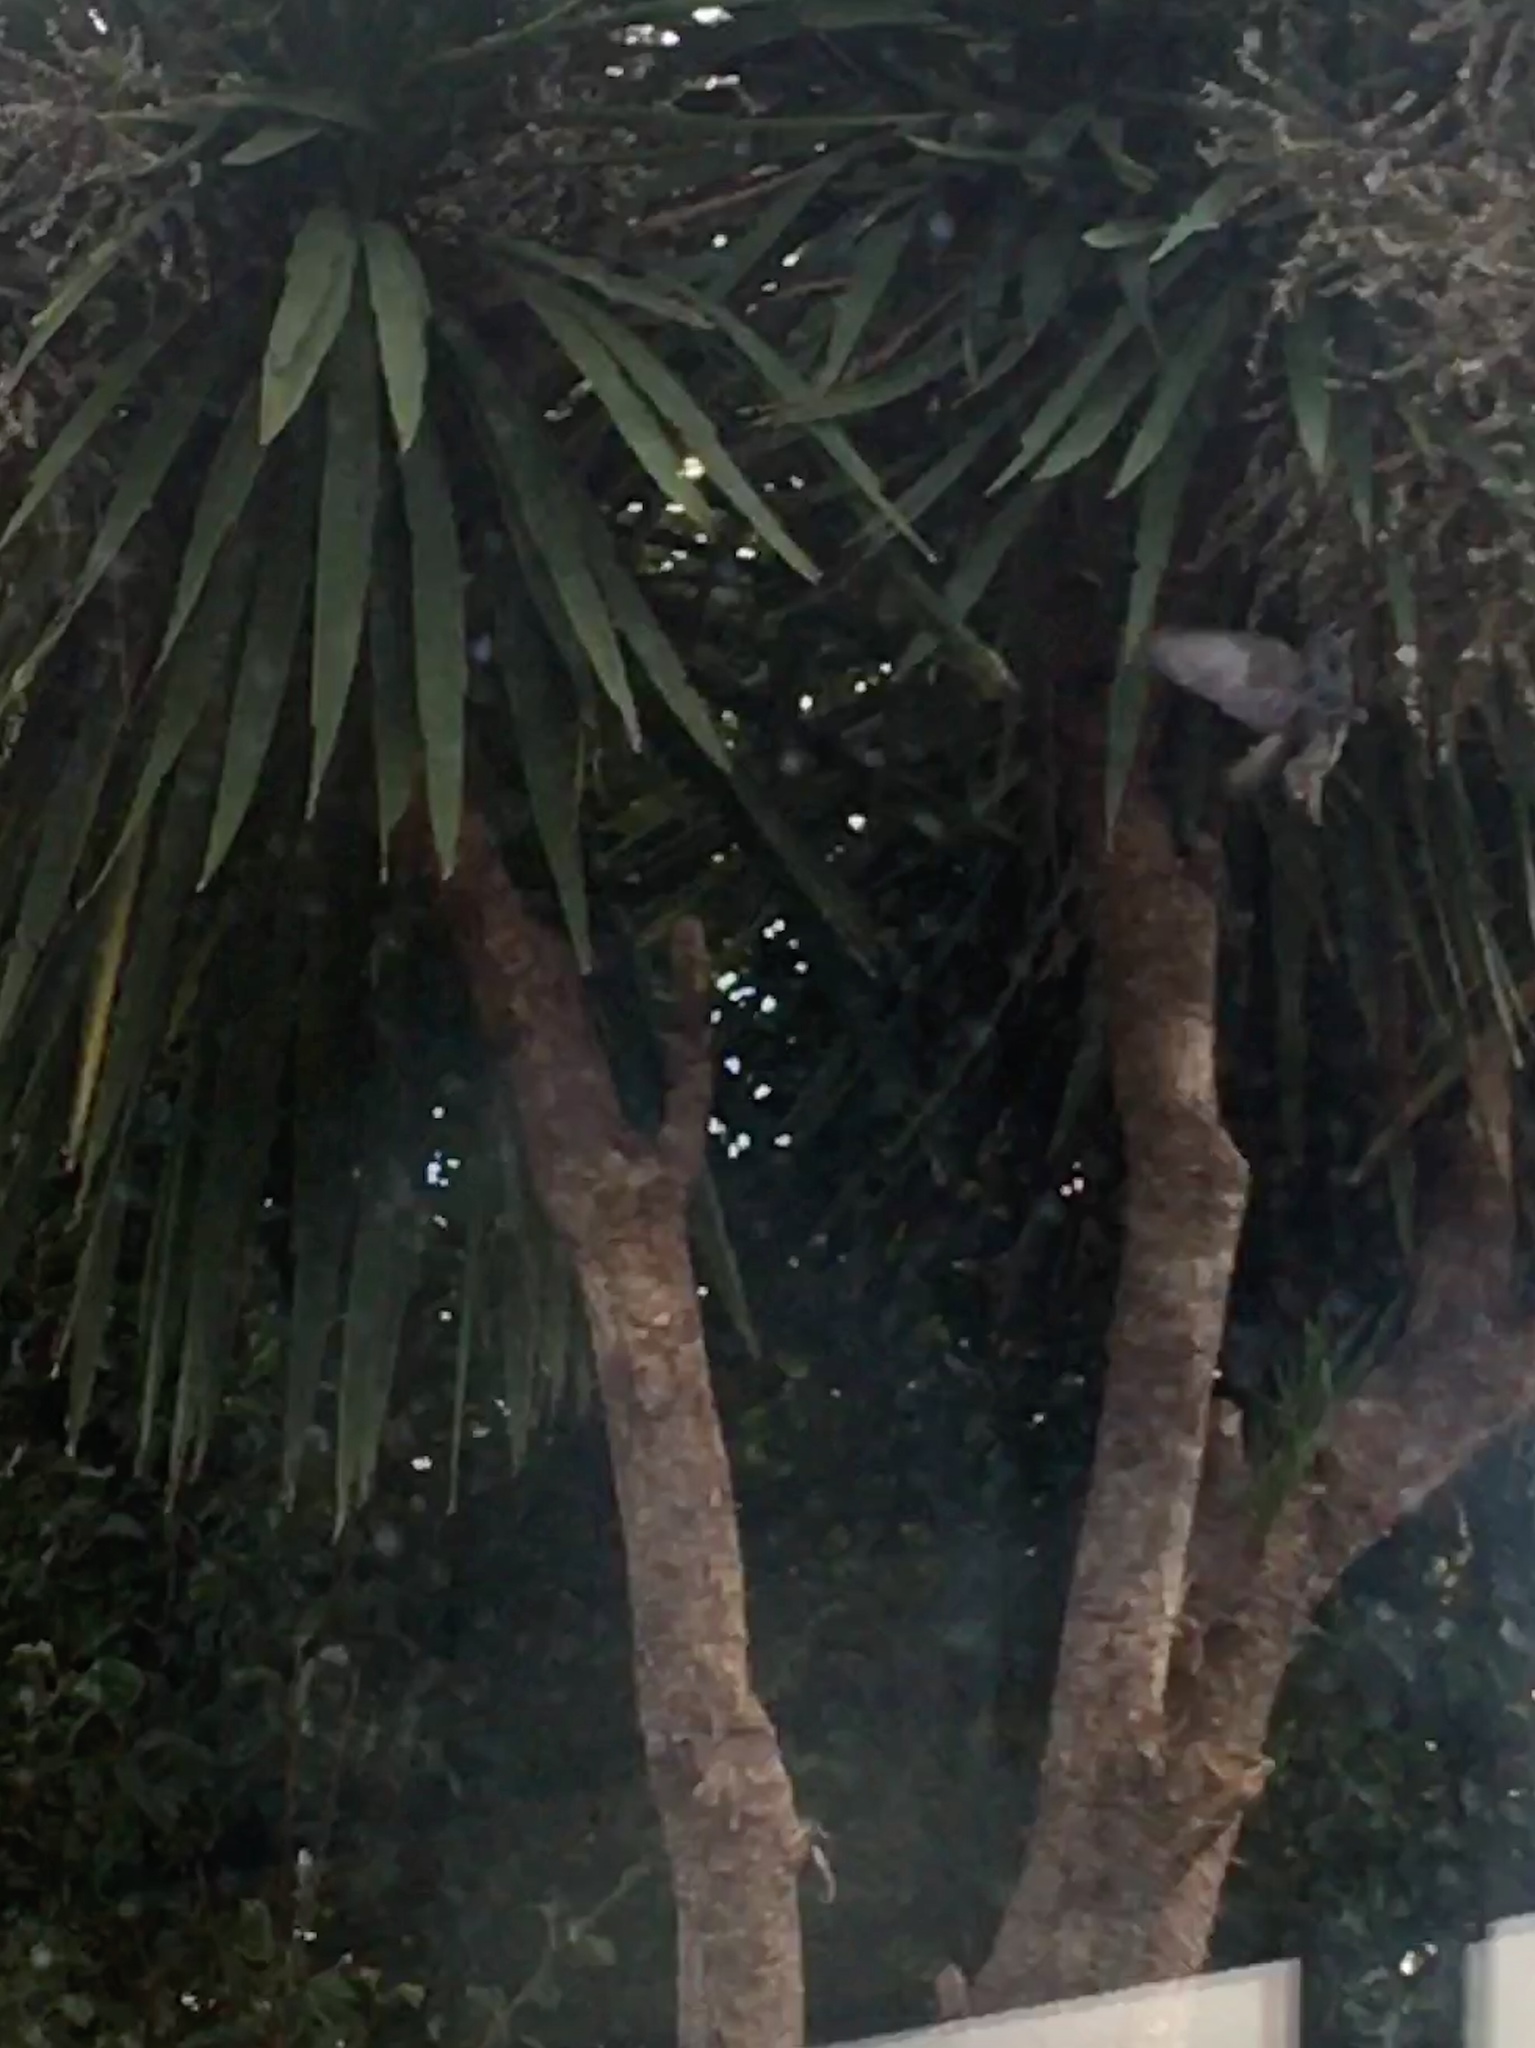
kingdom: Animalia
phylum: Chordata
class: Aves
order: Passeriformes
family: Sturnidae
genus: Sturnus
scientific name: Sturnus vulgaris
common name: Common starling
